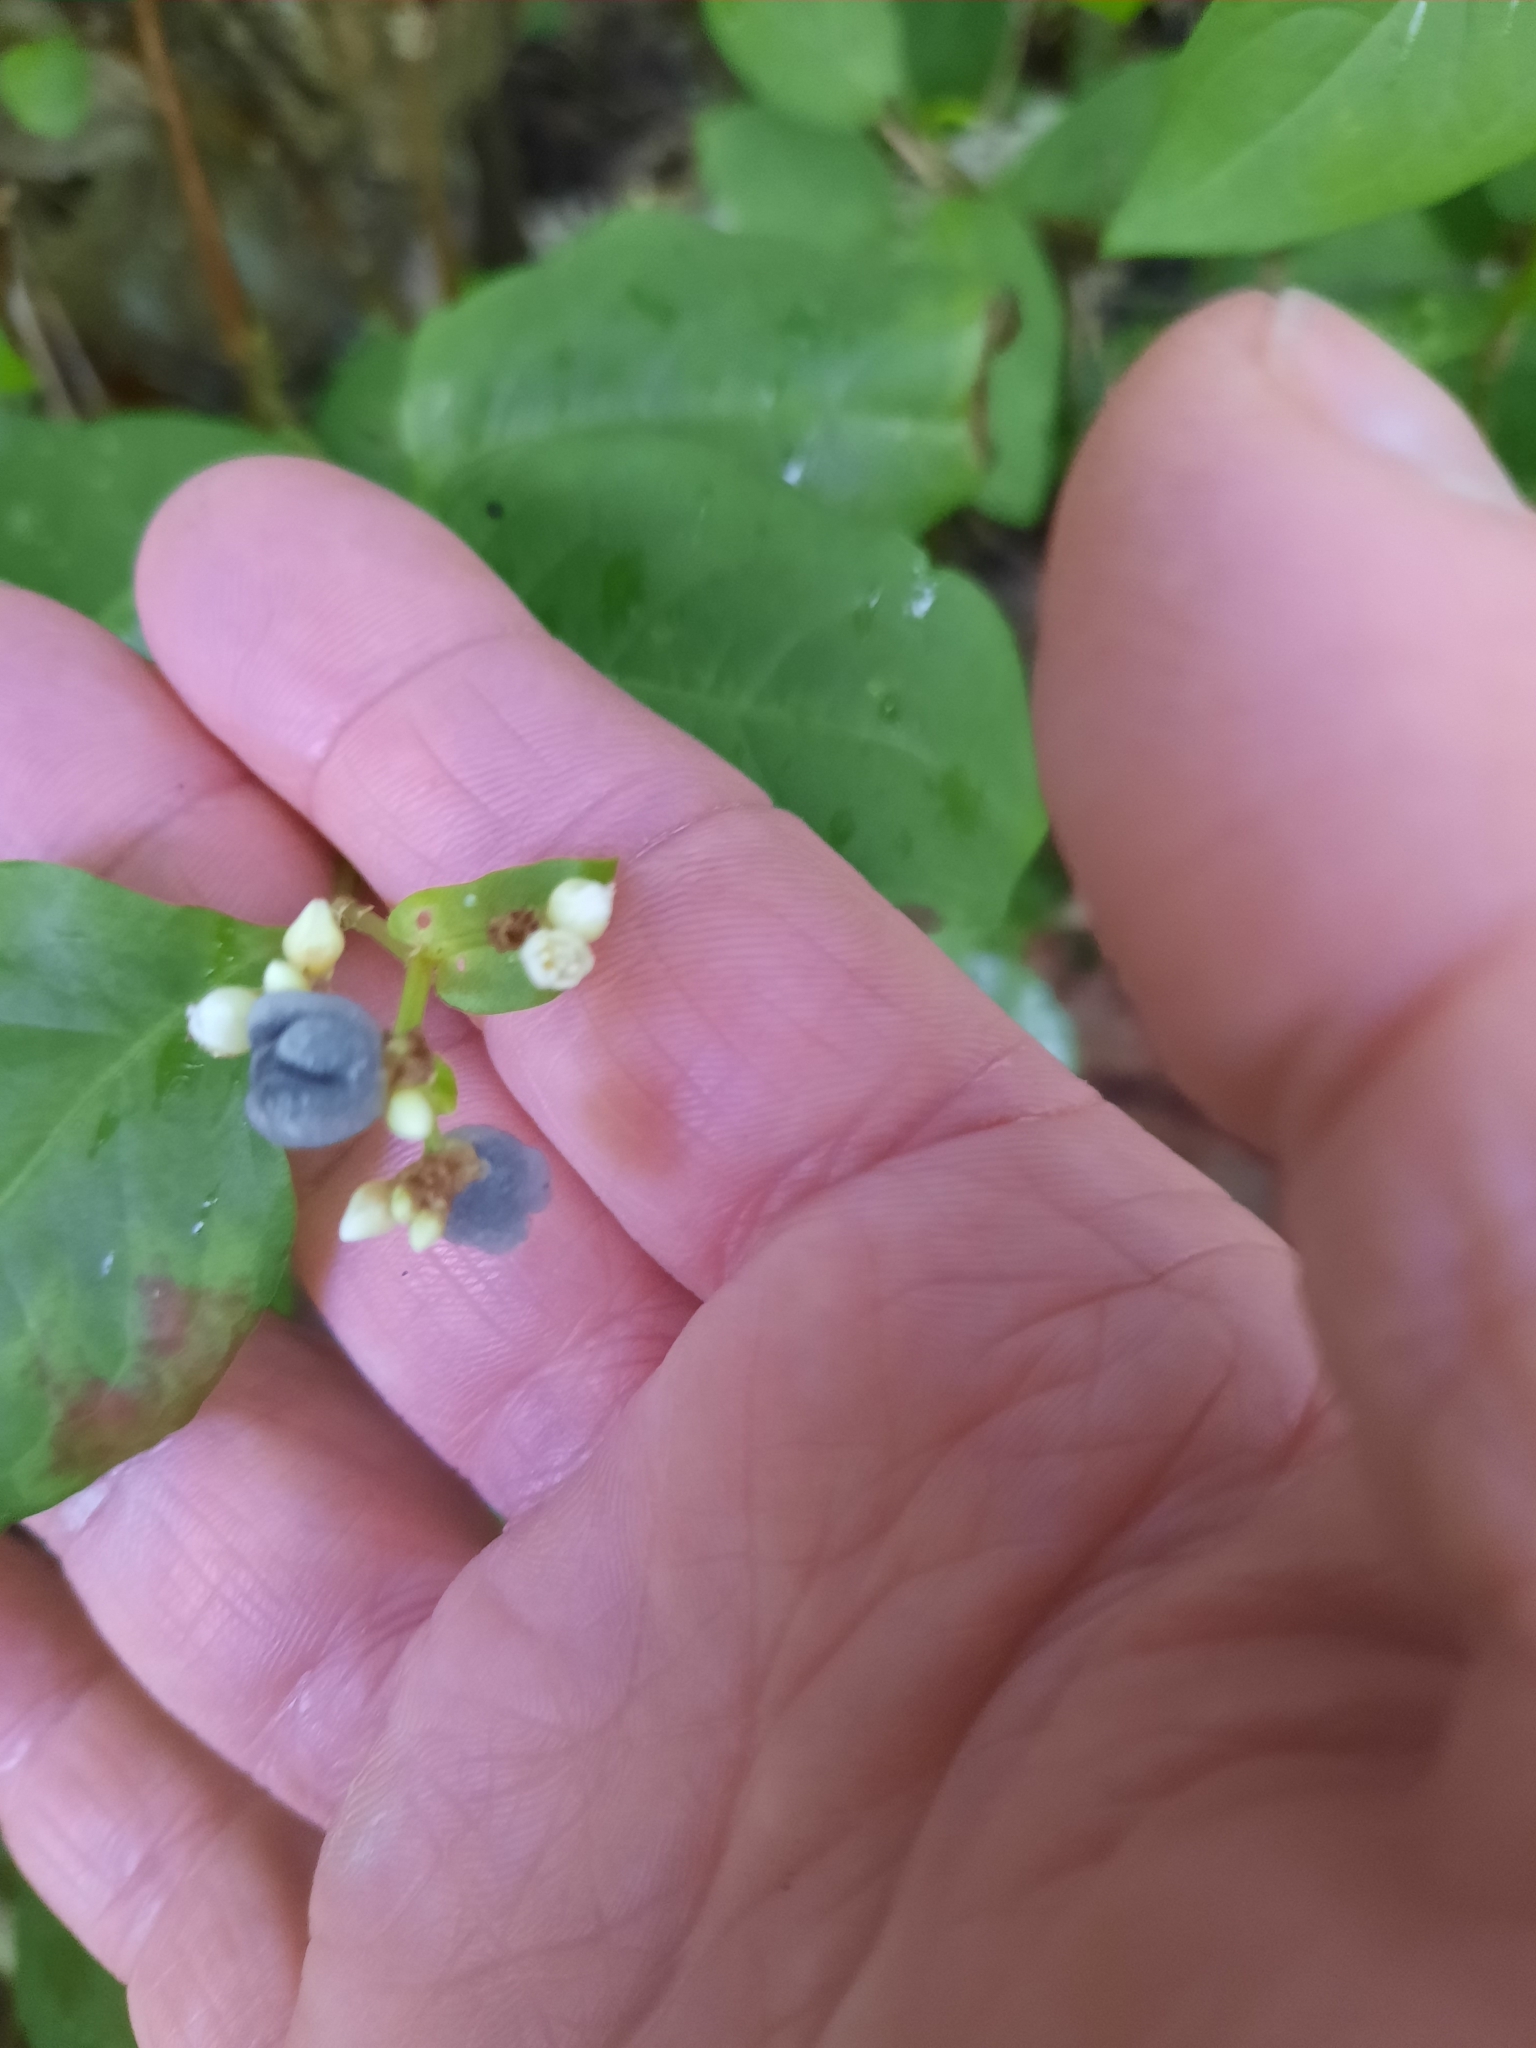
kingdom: Plantae
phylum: Tracheophyta
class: Magnoliopsida
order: Caryophyllales
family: Polygonaceae
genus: Persicaria
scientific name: Persicaria chinensis
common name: Chinese knotweed
